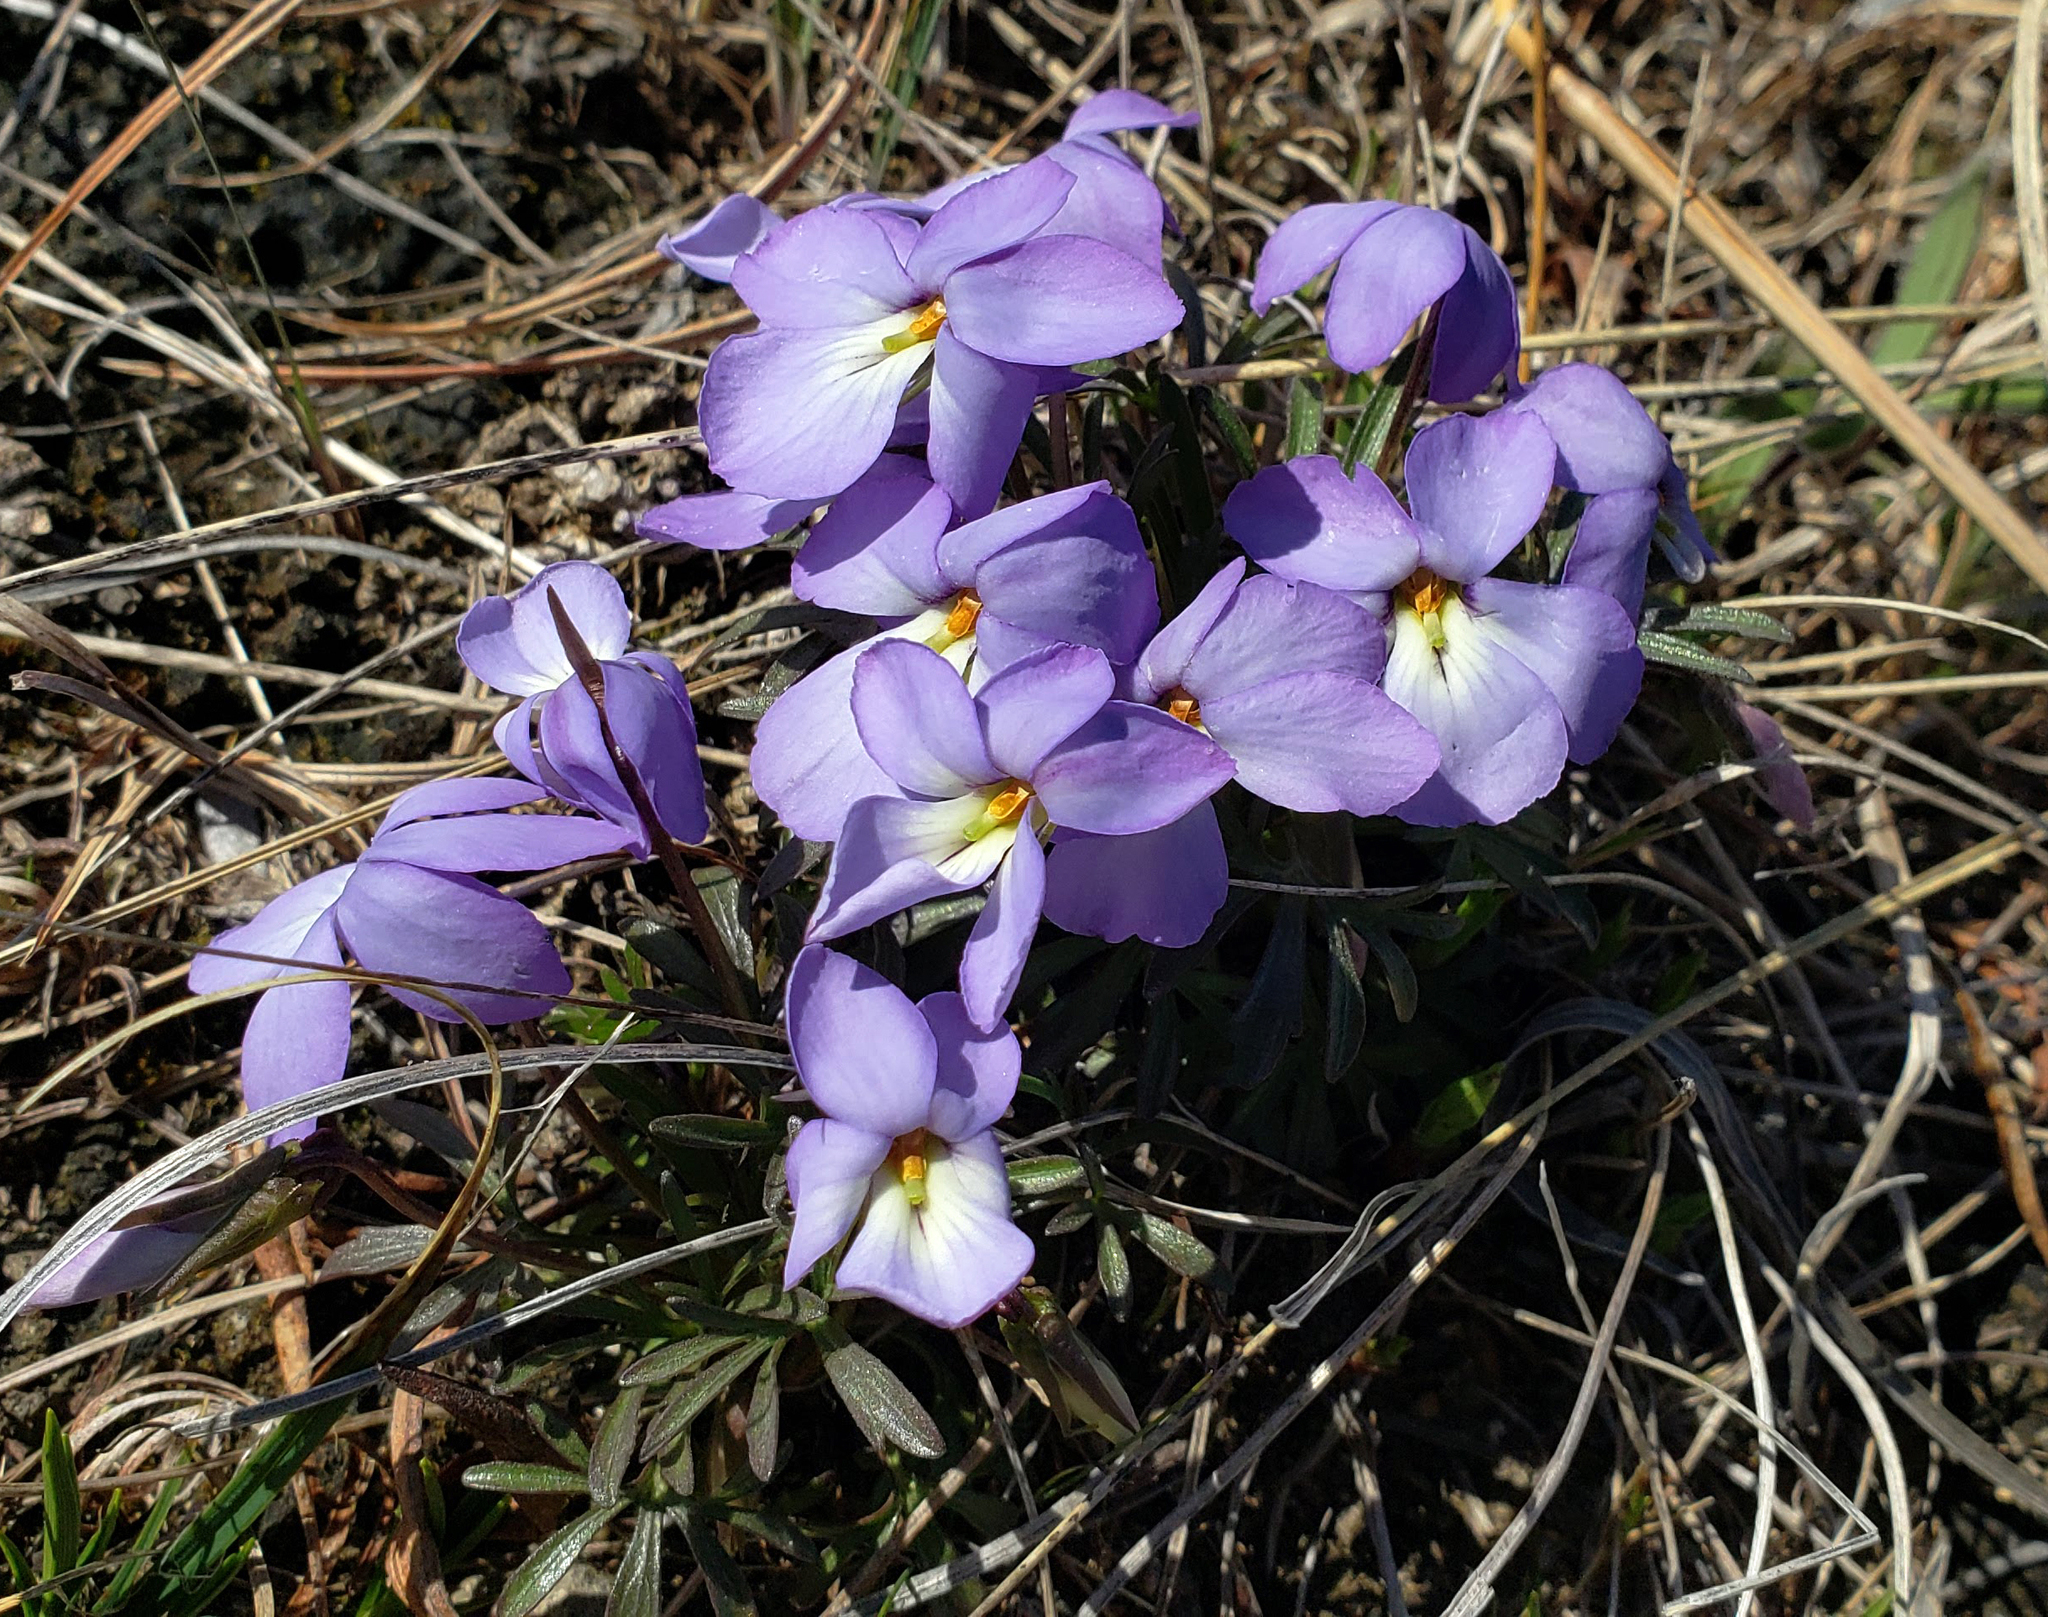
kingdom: Plantae
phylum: Tracheophyta
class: Magnoliopsida
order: Malpighiales
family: Violaceae
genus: Viola
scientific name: Viola pedata
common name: Pansy violet
